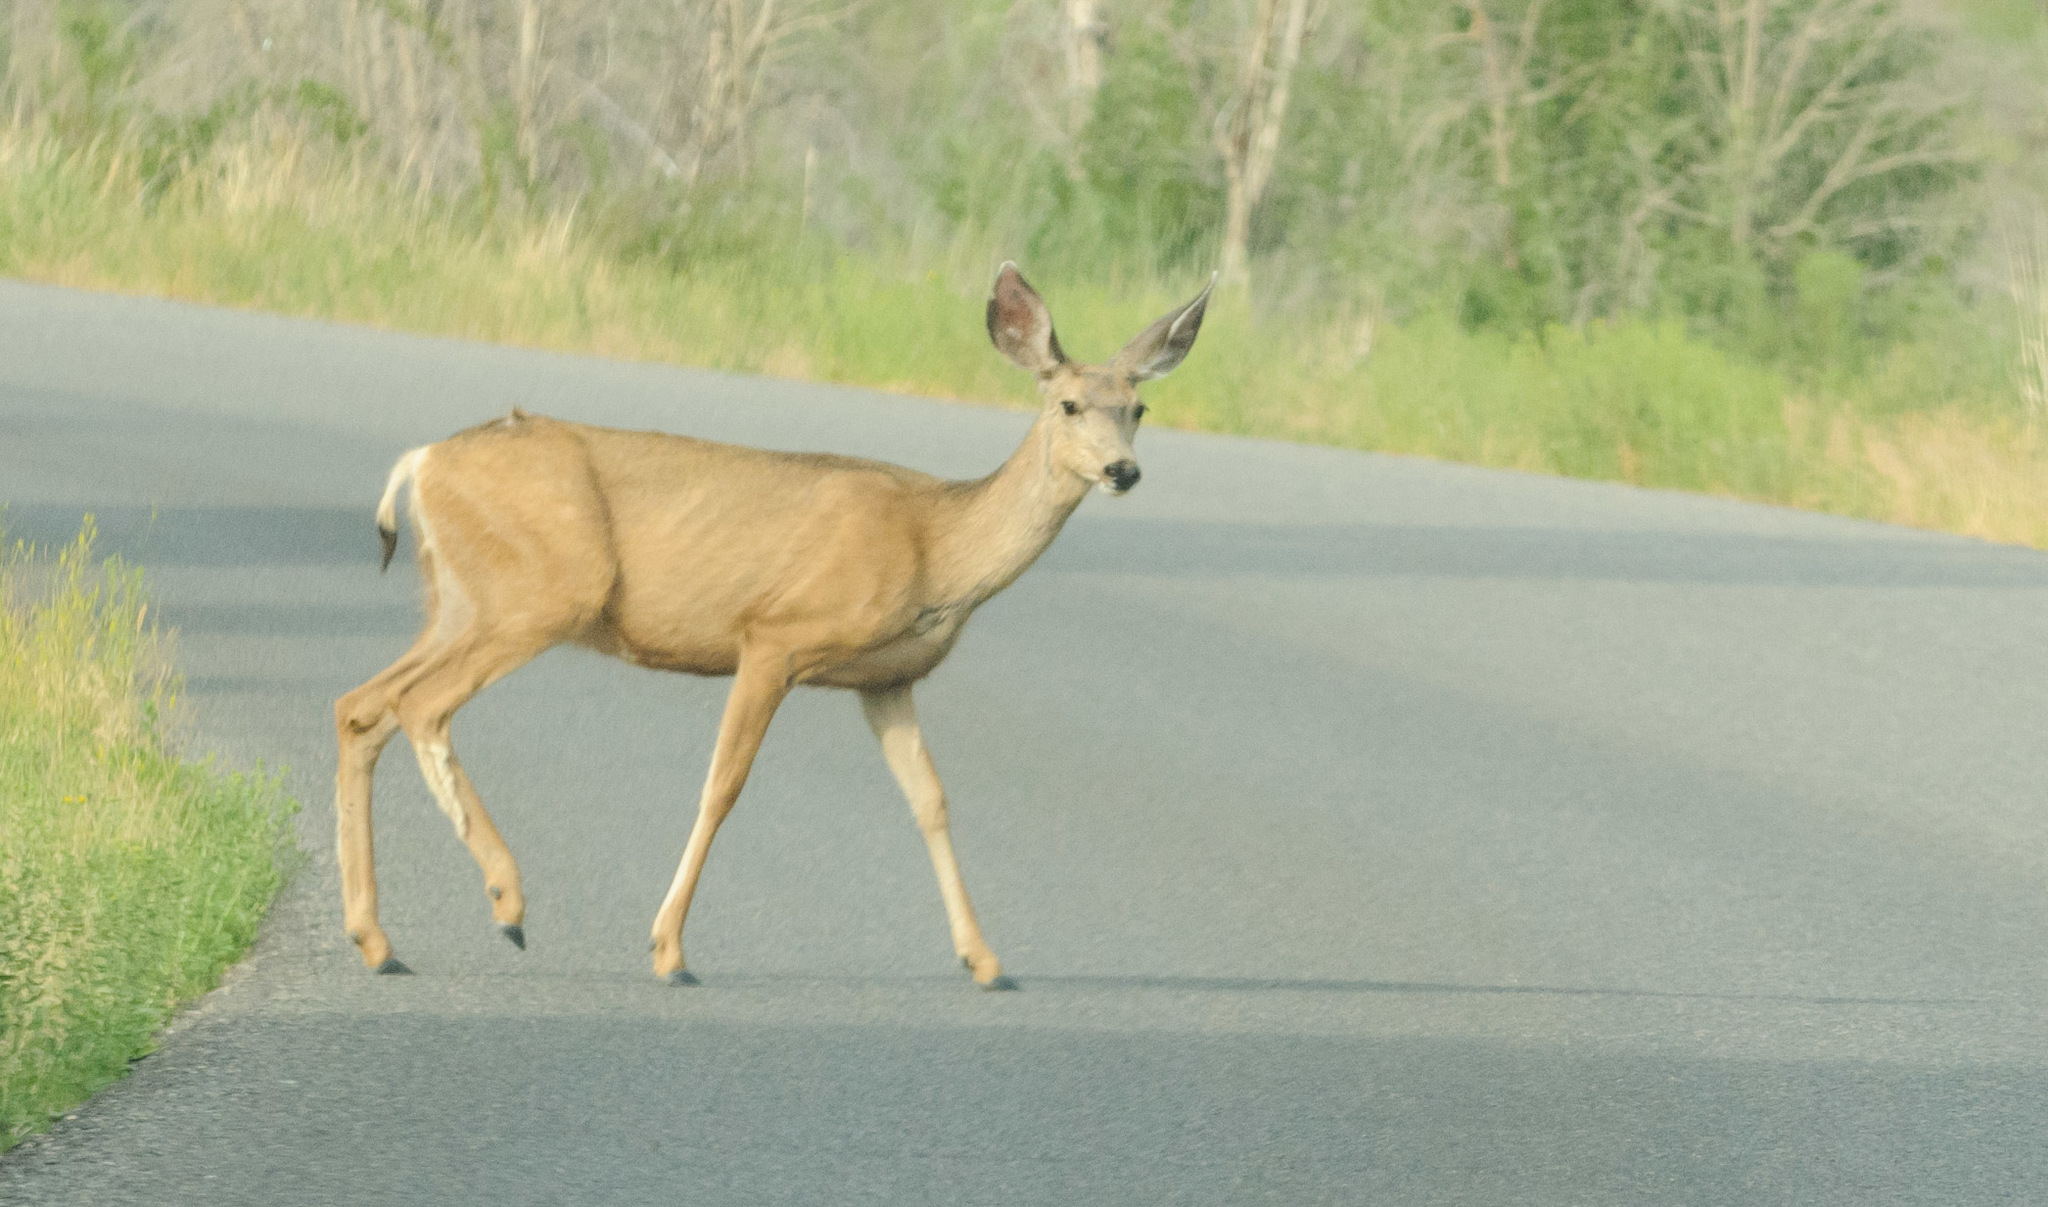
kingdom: Animalia
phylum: Chordata
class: Mammalia
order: Artiodactyla
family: Cervidae
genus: Odocoileus
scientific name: Odocoileus hemionus
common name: Mule deer
